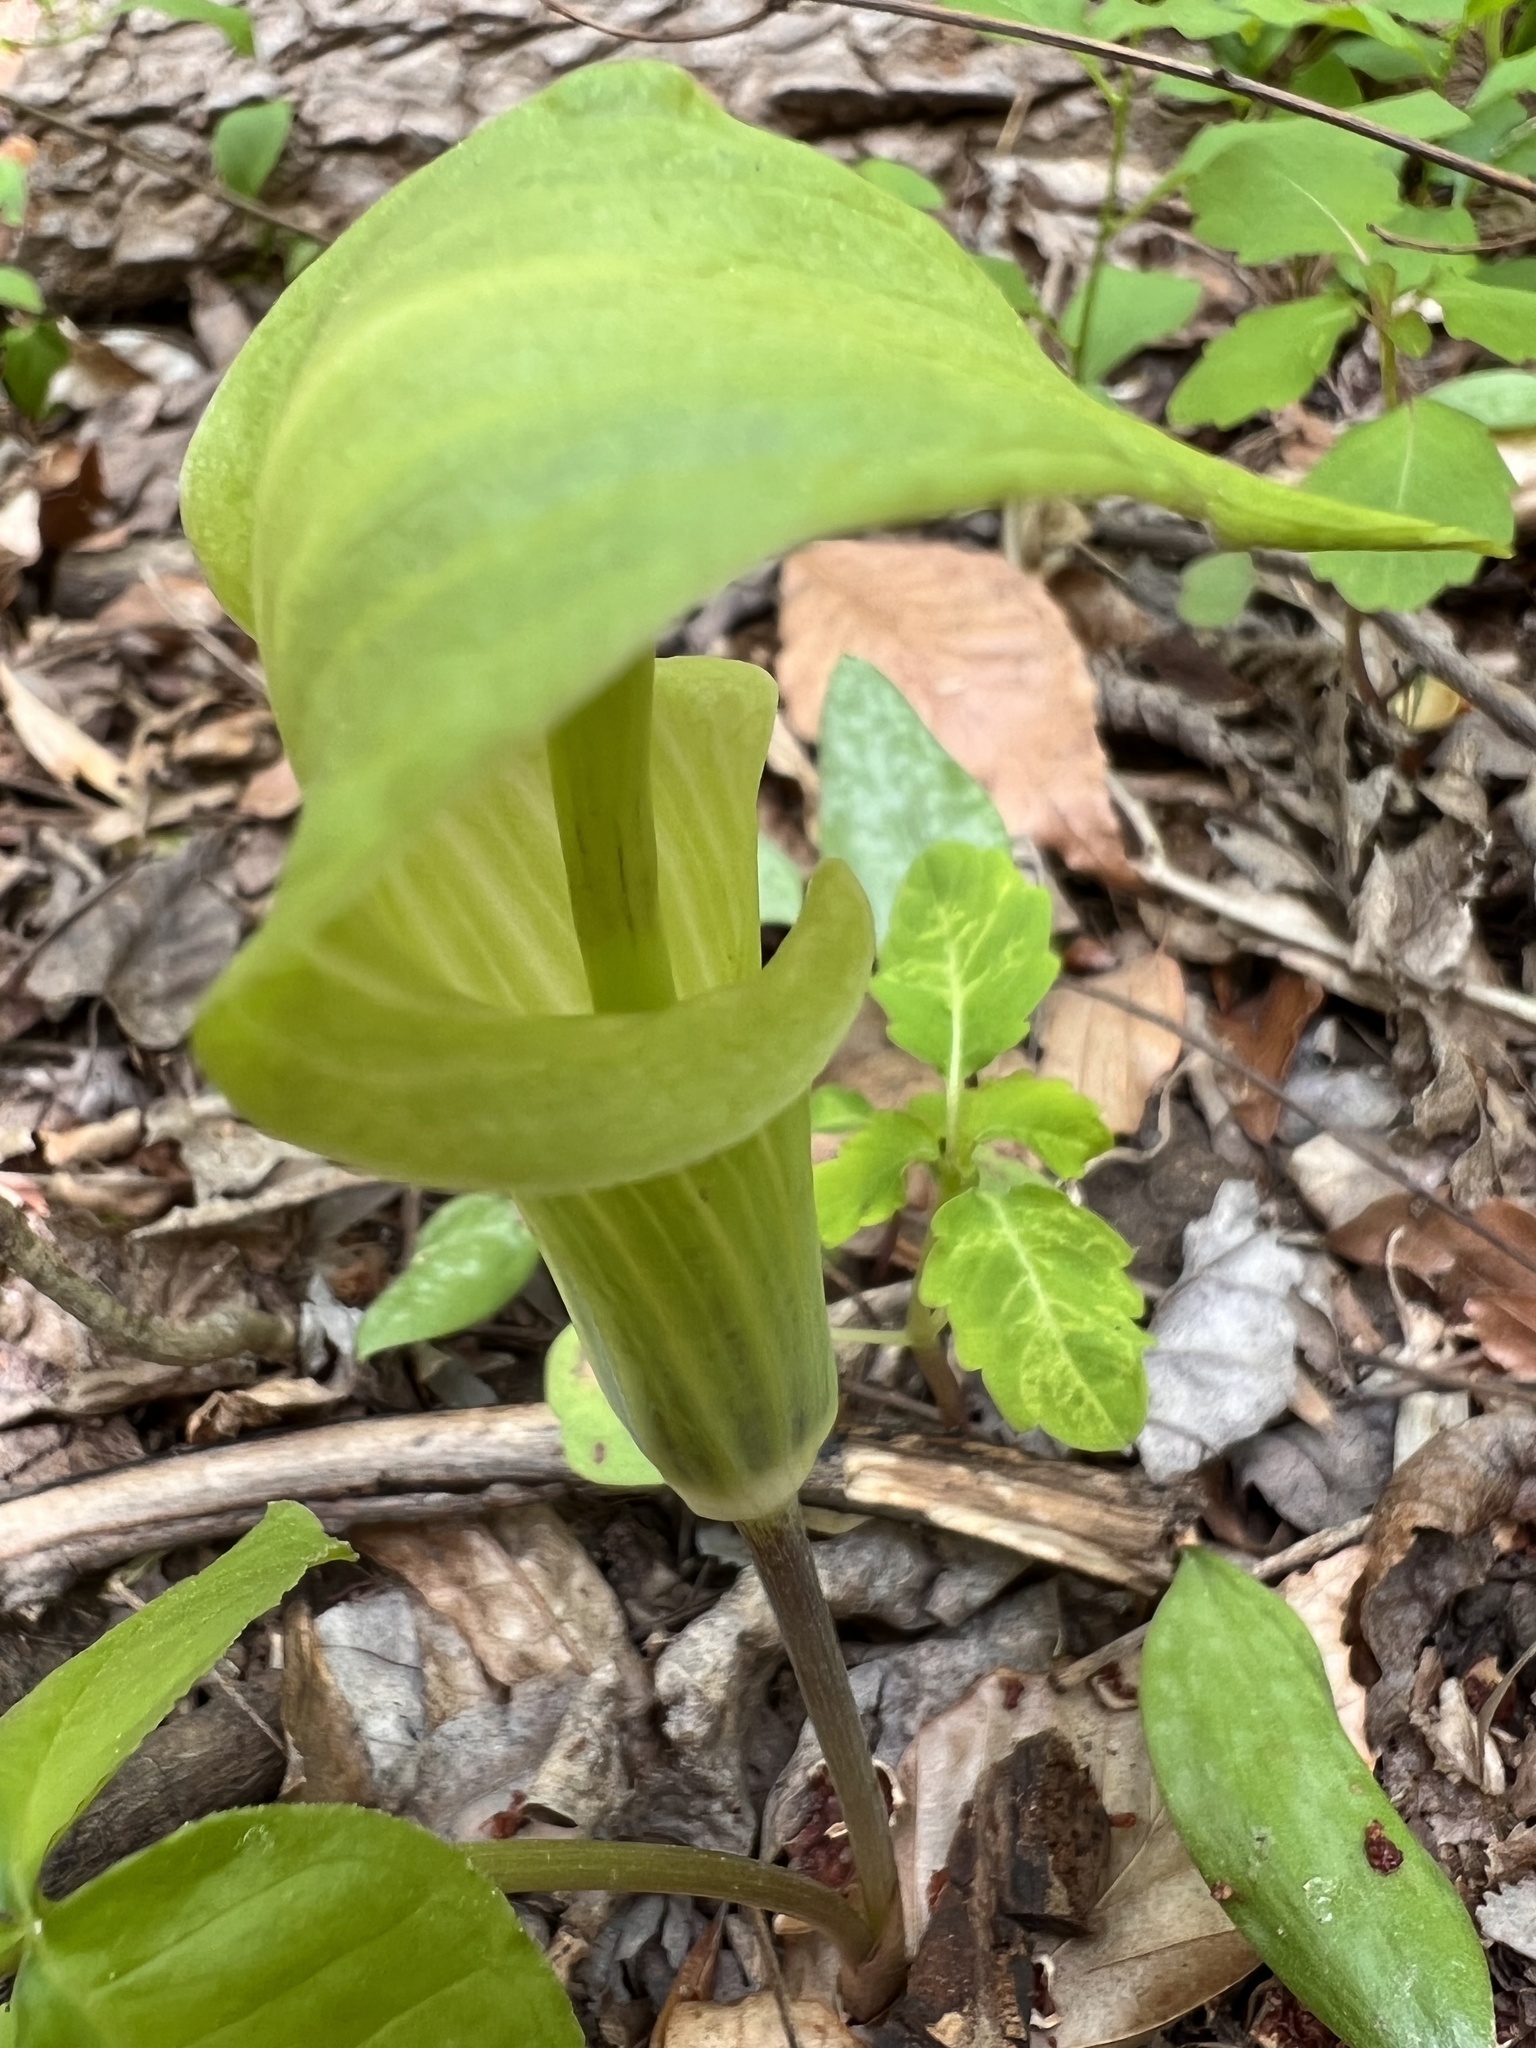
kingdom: Plantae
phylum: Tracheophyta
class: Liliopsida
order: Alismatales
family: Araceae
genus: Arisaema
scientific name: Arisaema triphyllum
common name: Jack-in-the-pulpit
